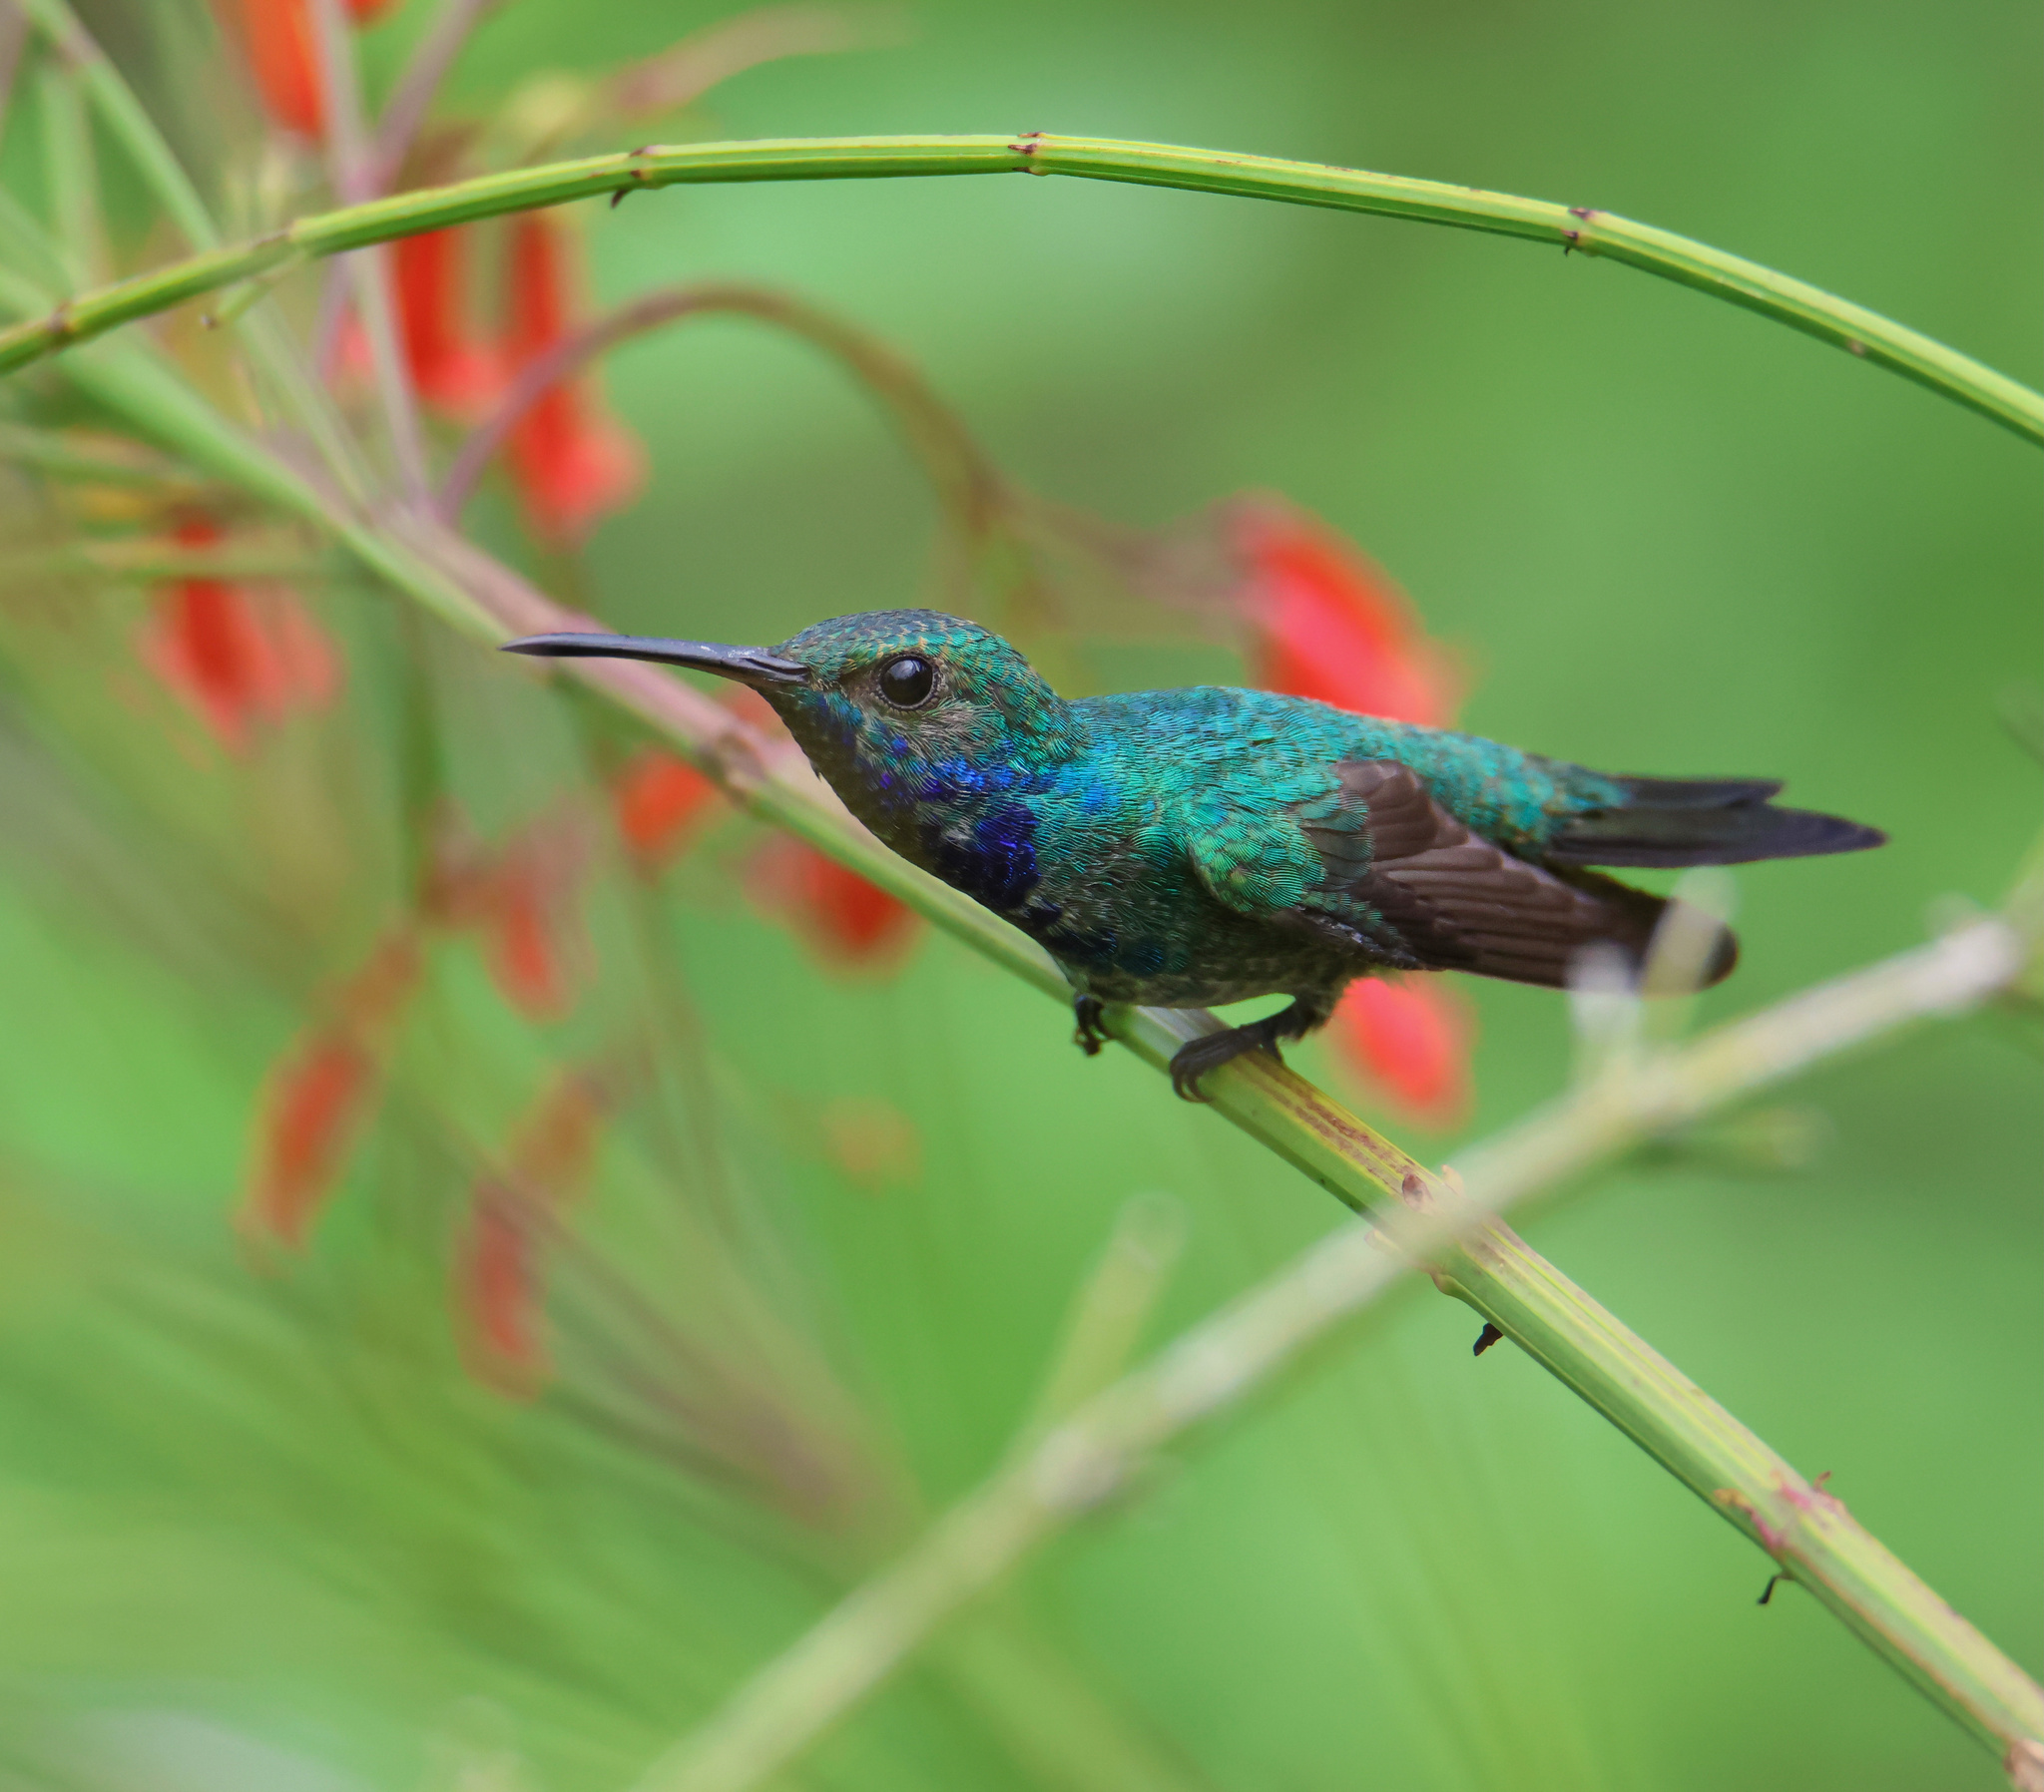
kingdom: Animalia
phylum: Chordata
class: Aves
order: Apodiformes
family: Trochilidae
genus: Chrysuronia
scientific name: Chrysuronia coeruleogularis
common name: Sapphire-throated hummingbird
